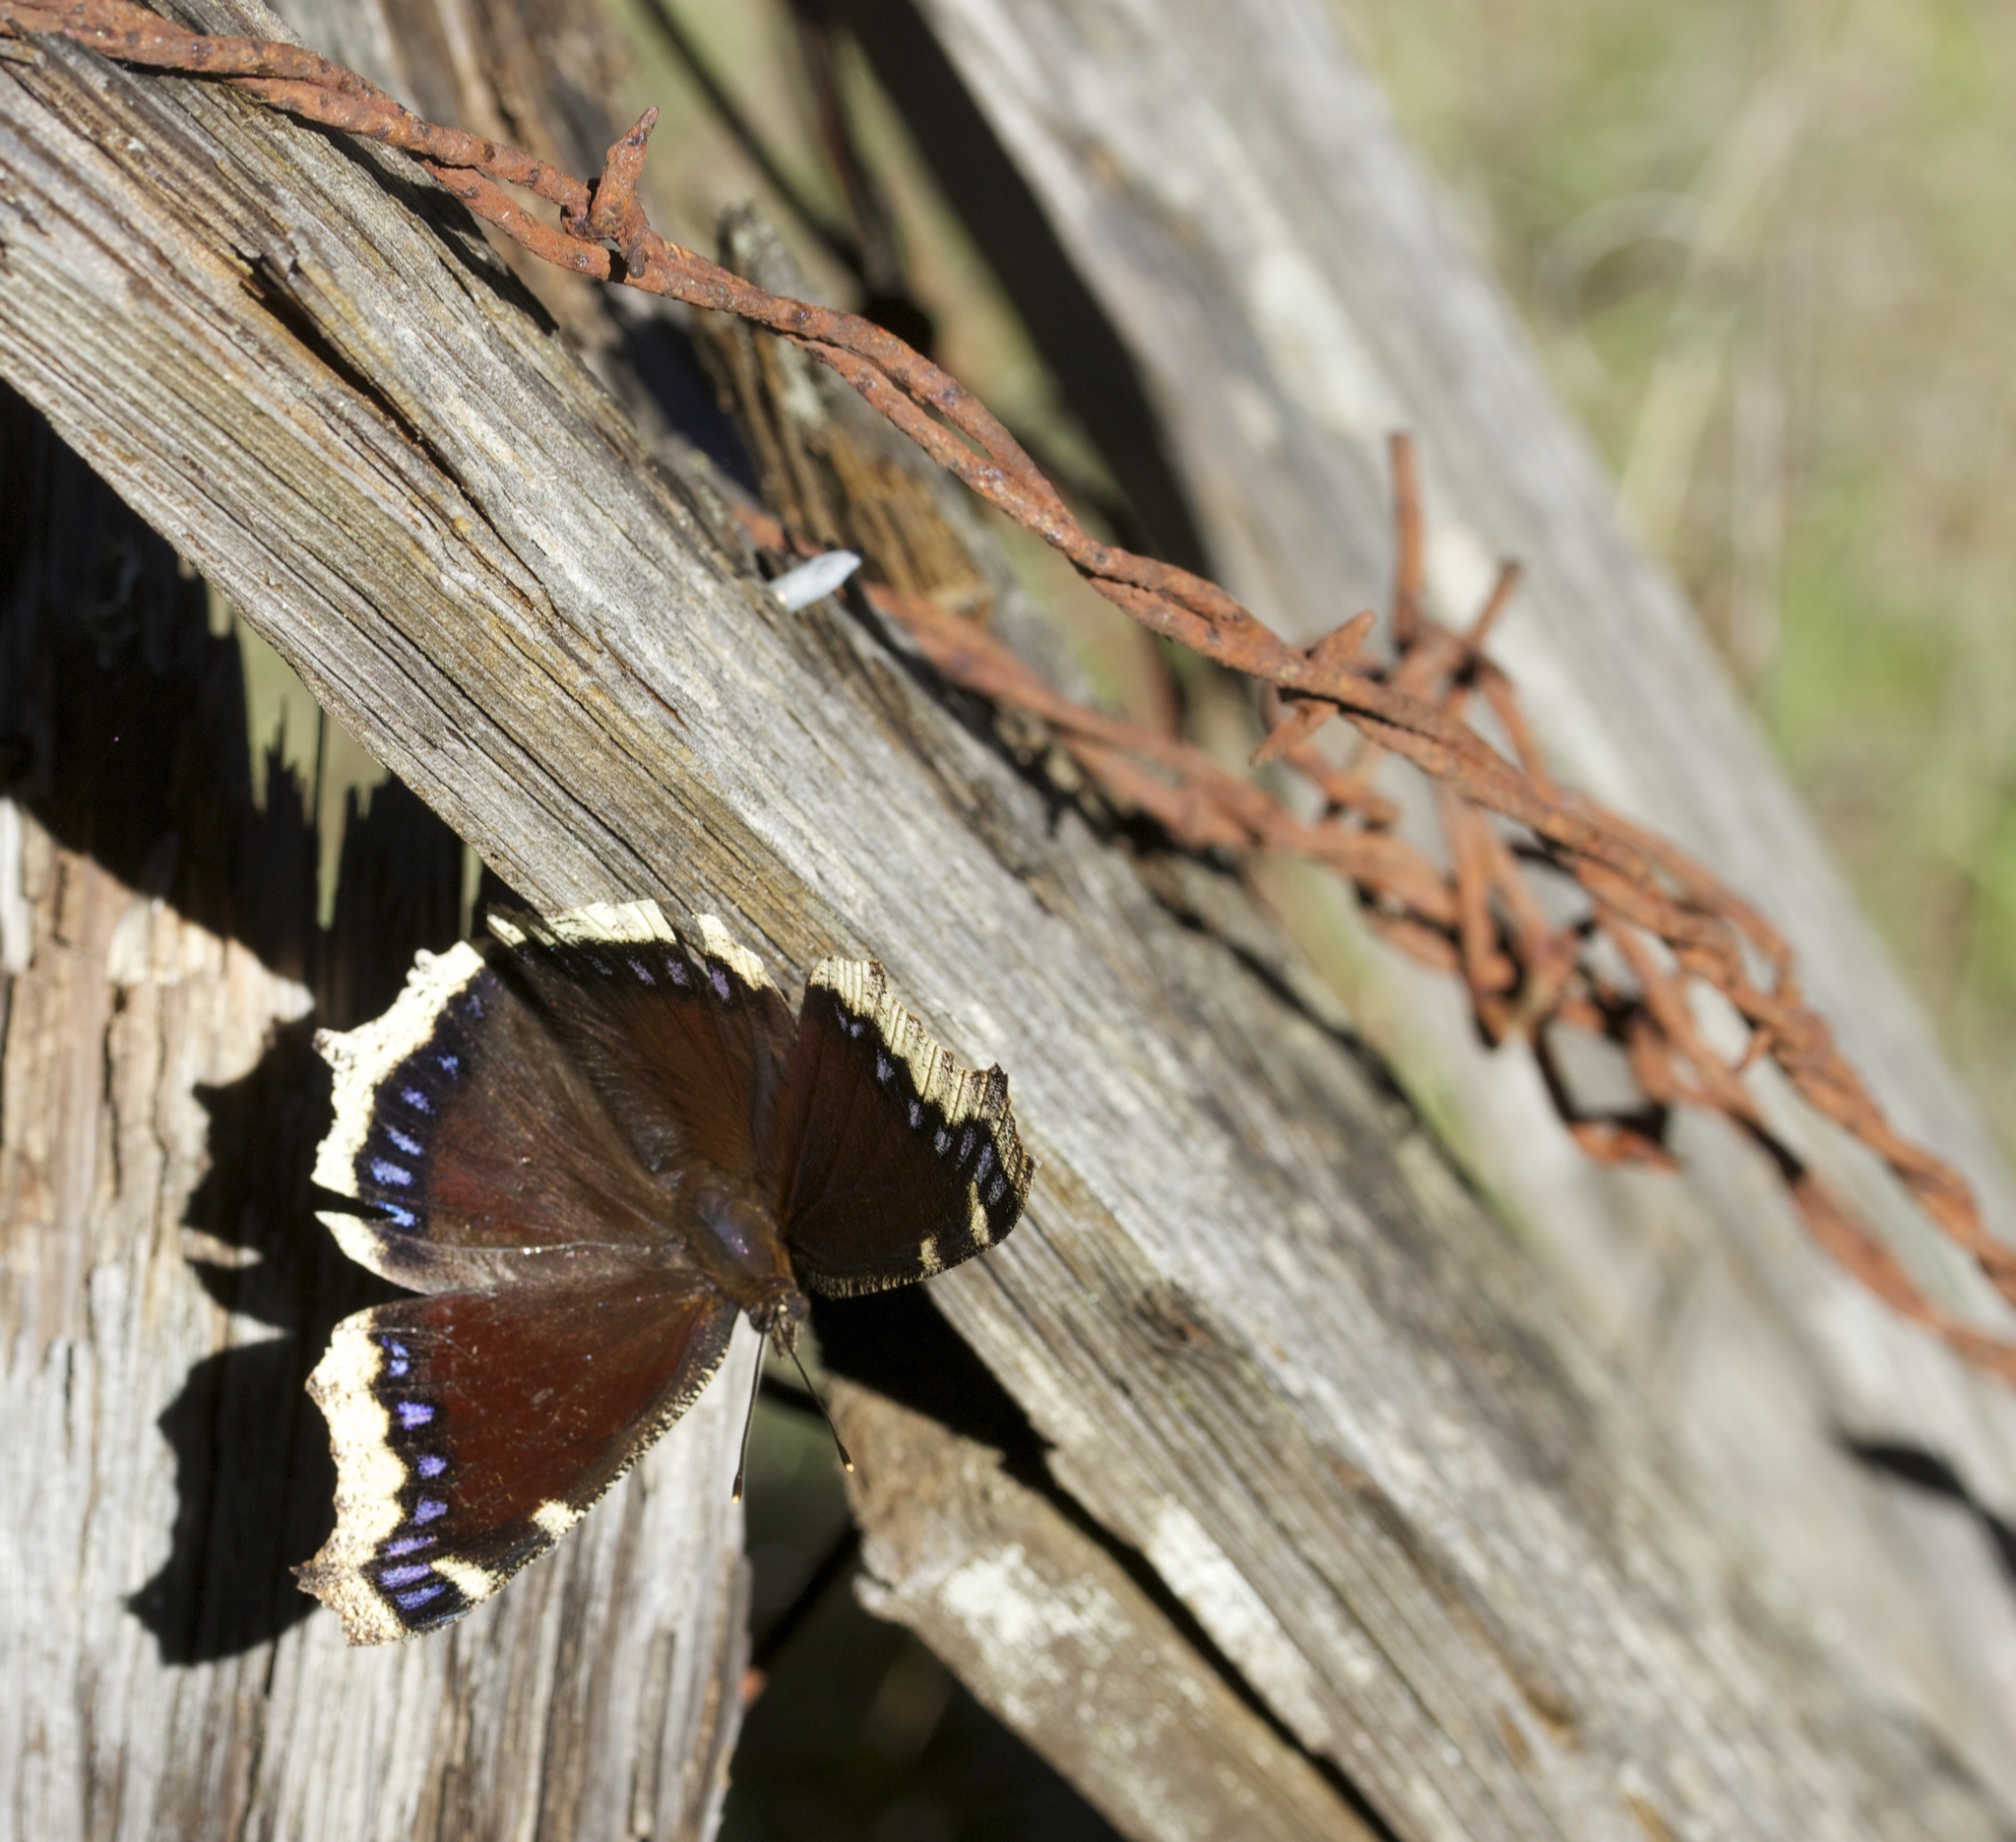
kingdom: Animalia
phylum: Arthropoda
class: Insecta
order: Lepidoptera
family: Nymphalidae
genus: Nymphalis
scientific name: Nymphalis antiopa
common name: Camberwell beauty
